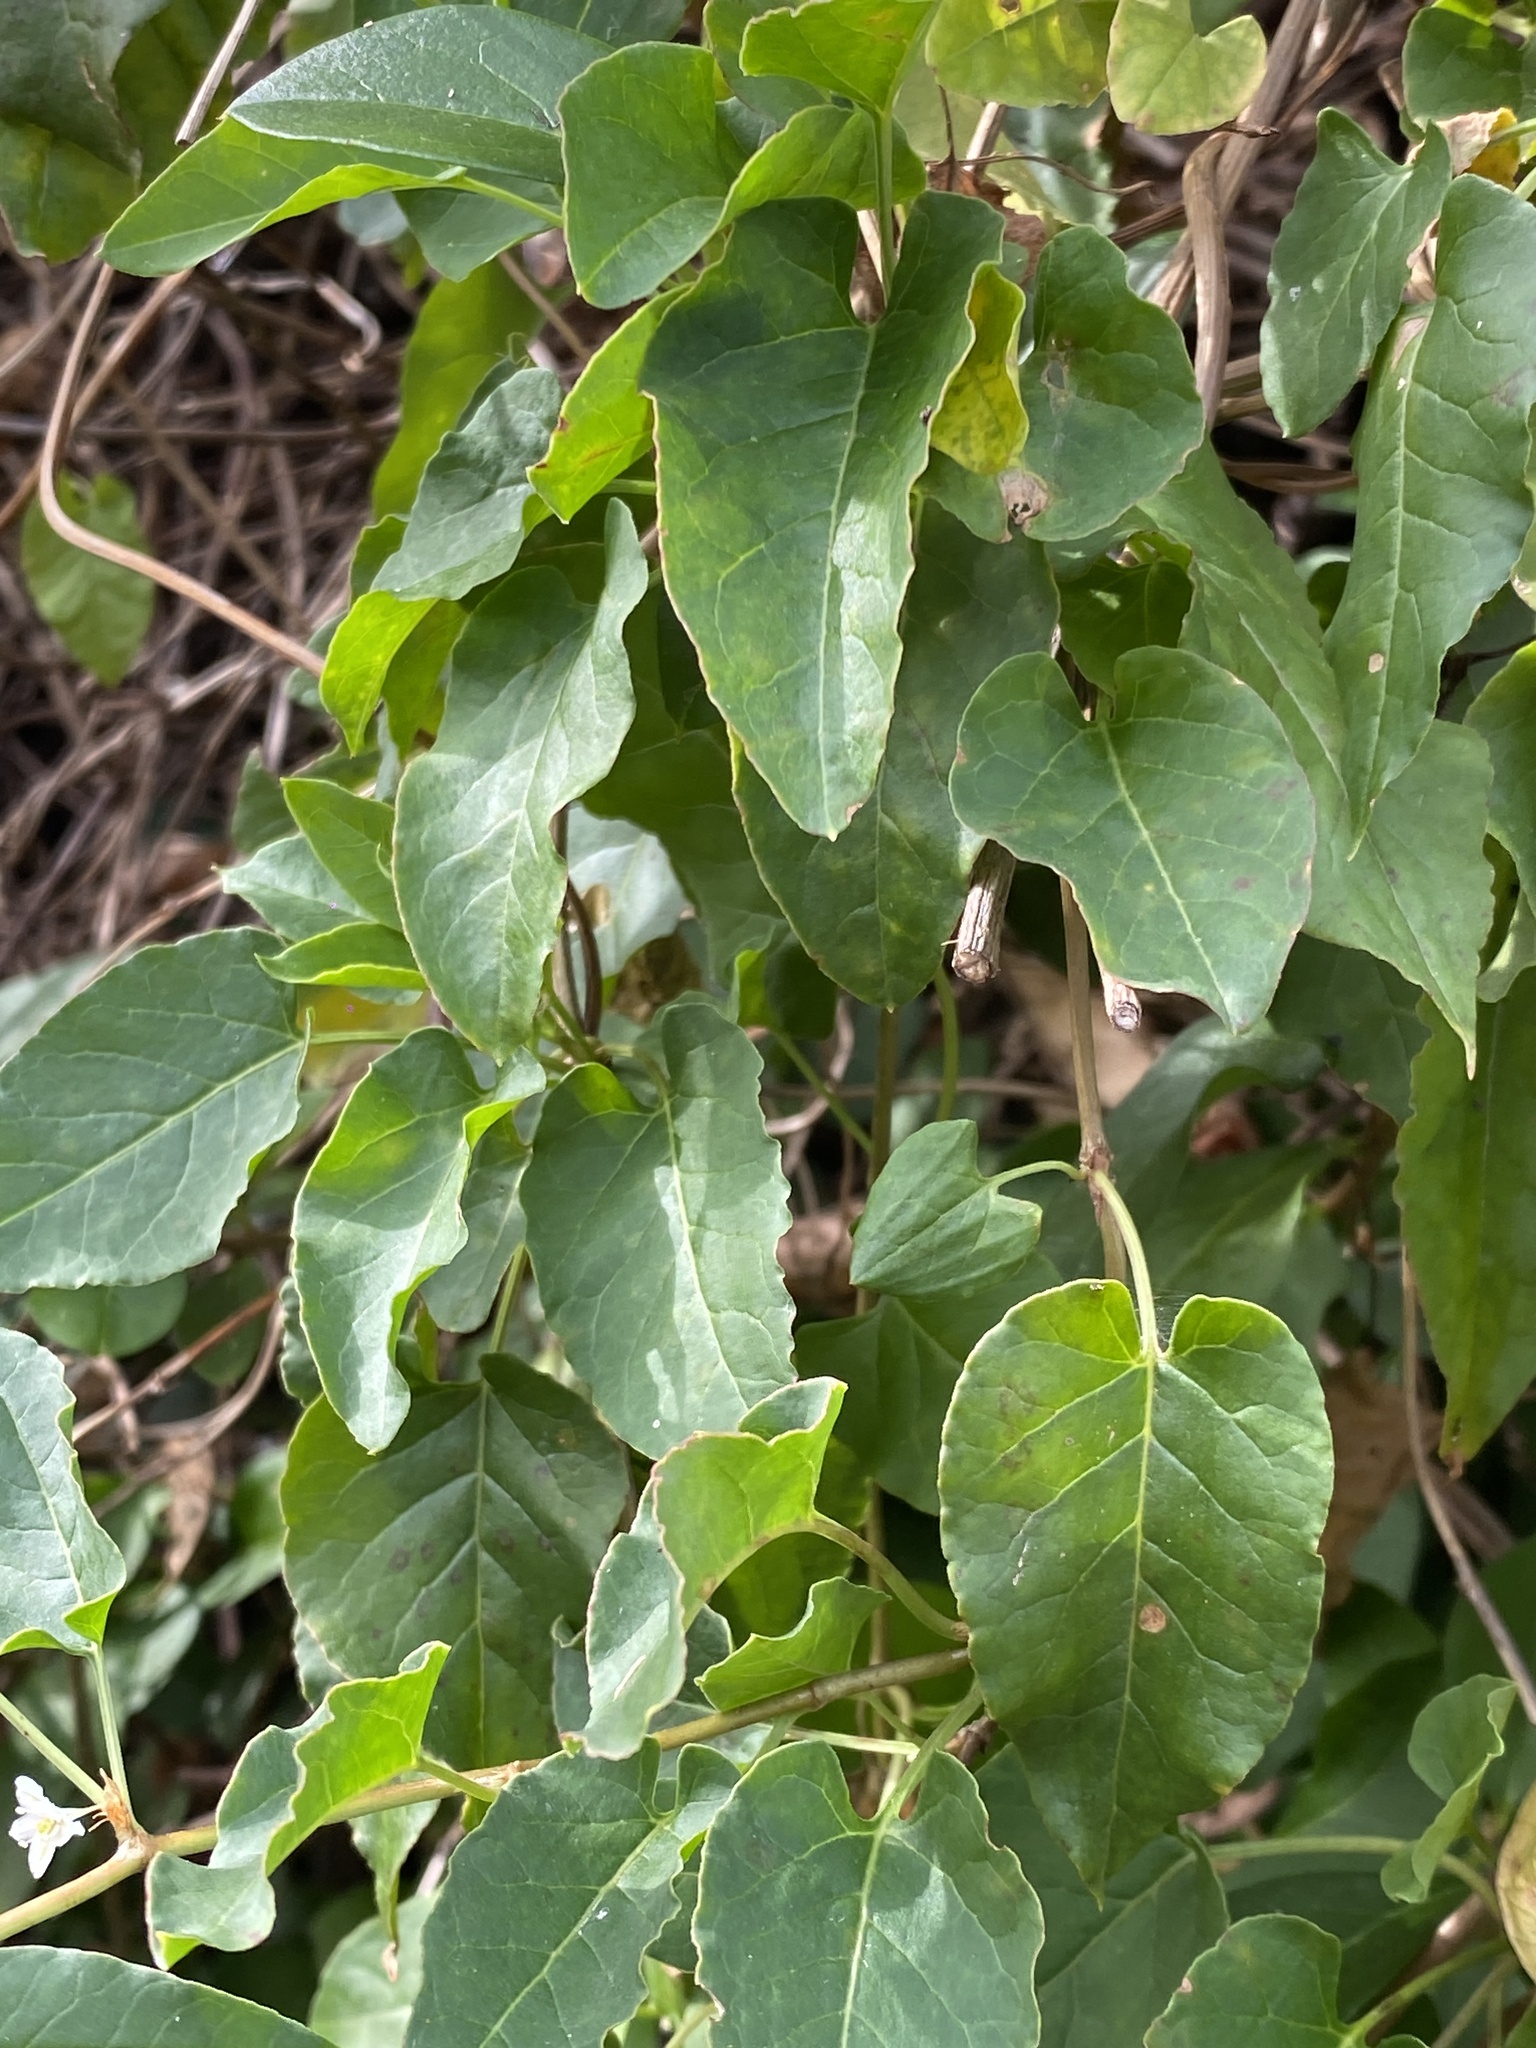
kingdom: Plantae
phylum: Tracheophyta
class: Magnoliopsida
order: Caryophyllales
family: Polygonaceae
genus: Fallopia
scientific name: Fallopia baldschuanica
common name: Russian-vine
